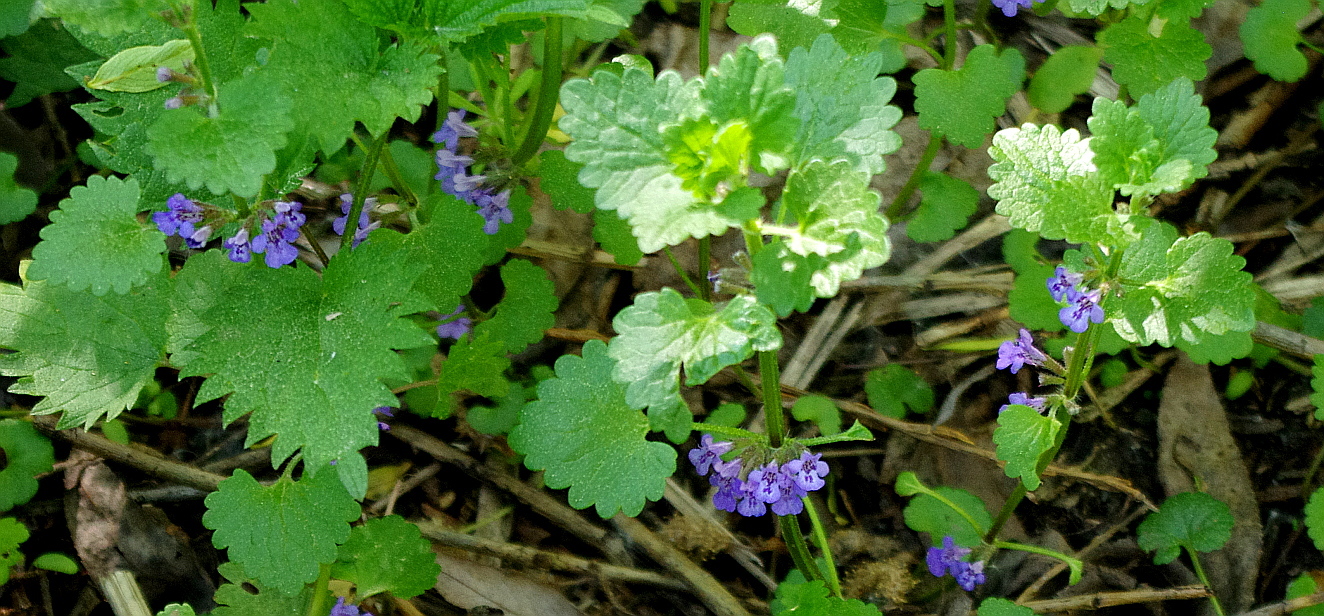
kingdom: Plantae
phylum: Tracheophyta
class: Magnoliopsida
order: Lamiales
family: Lamiaceae
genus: Glechoma
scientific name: Glechoma hederacea
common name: Ground ivy
